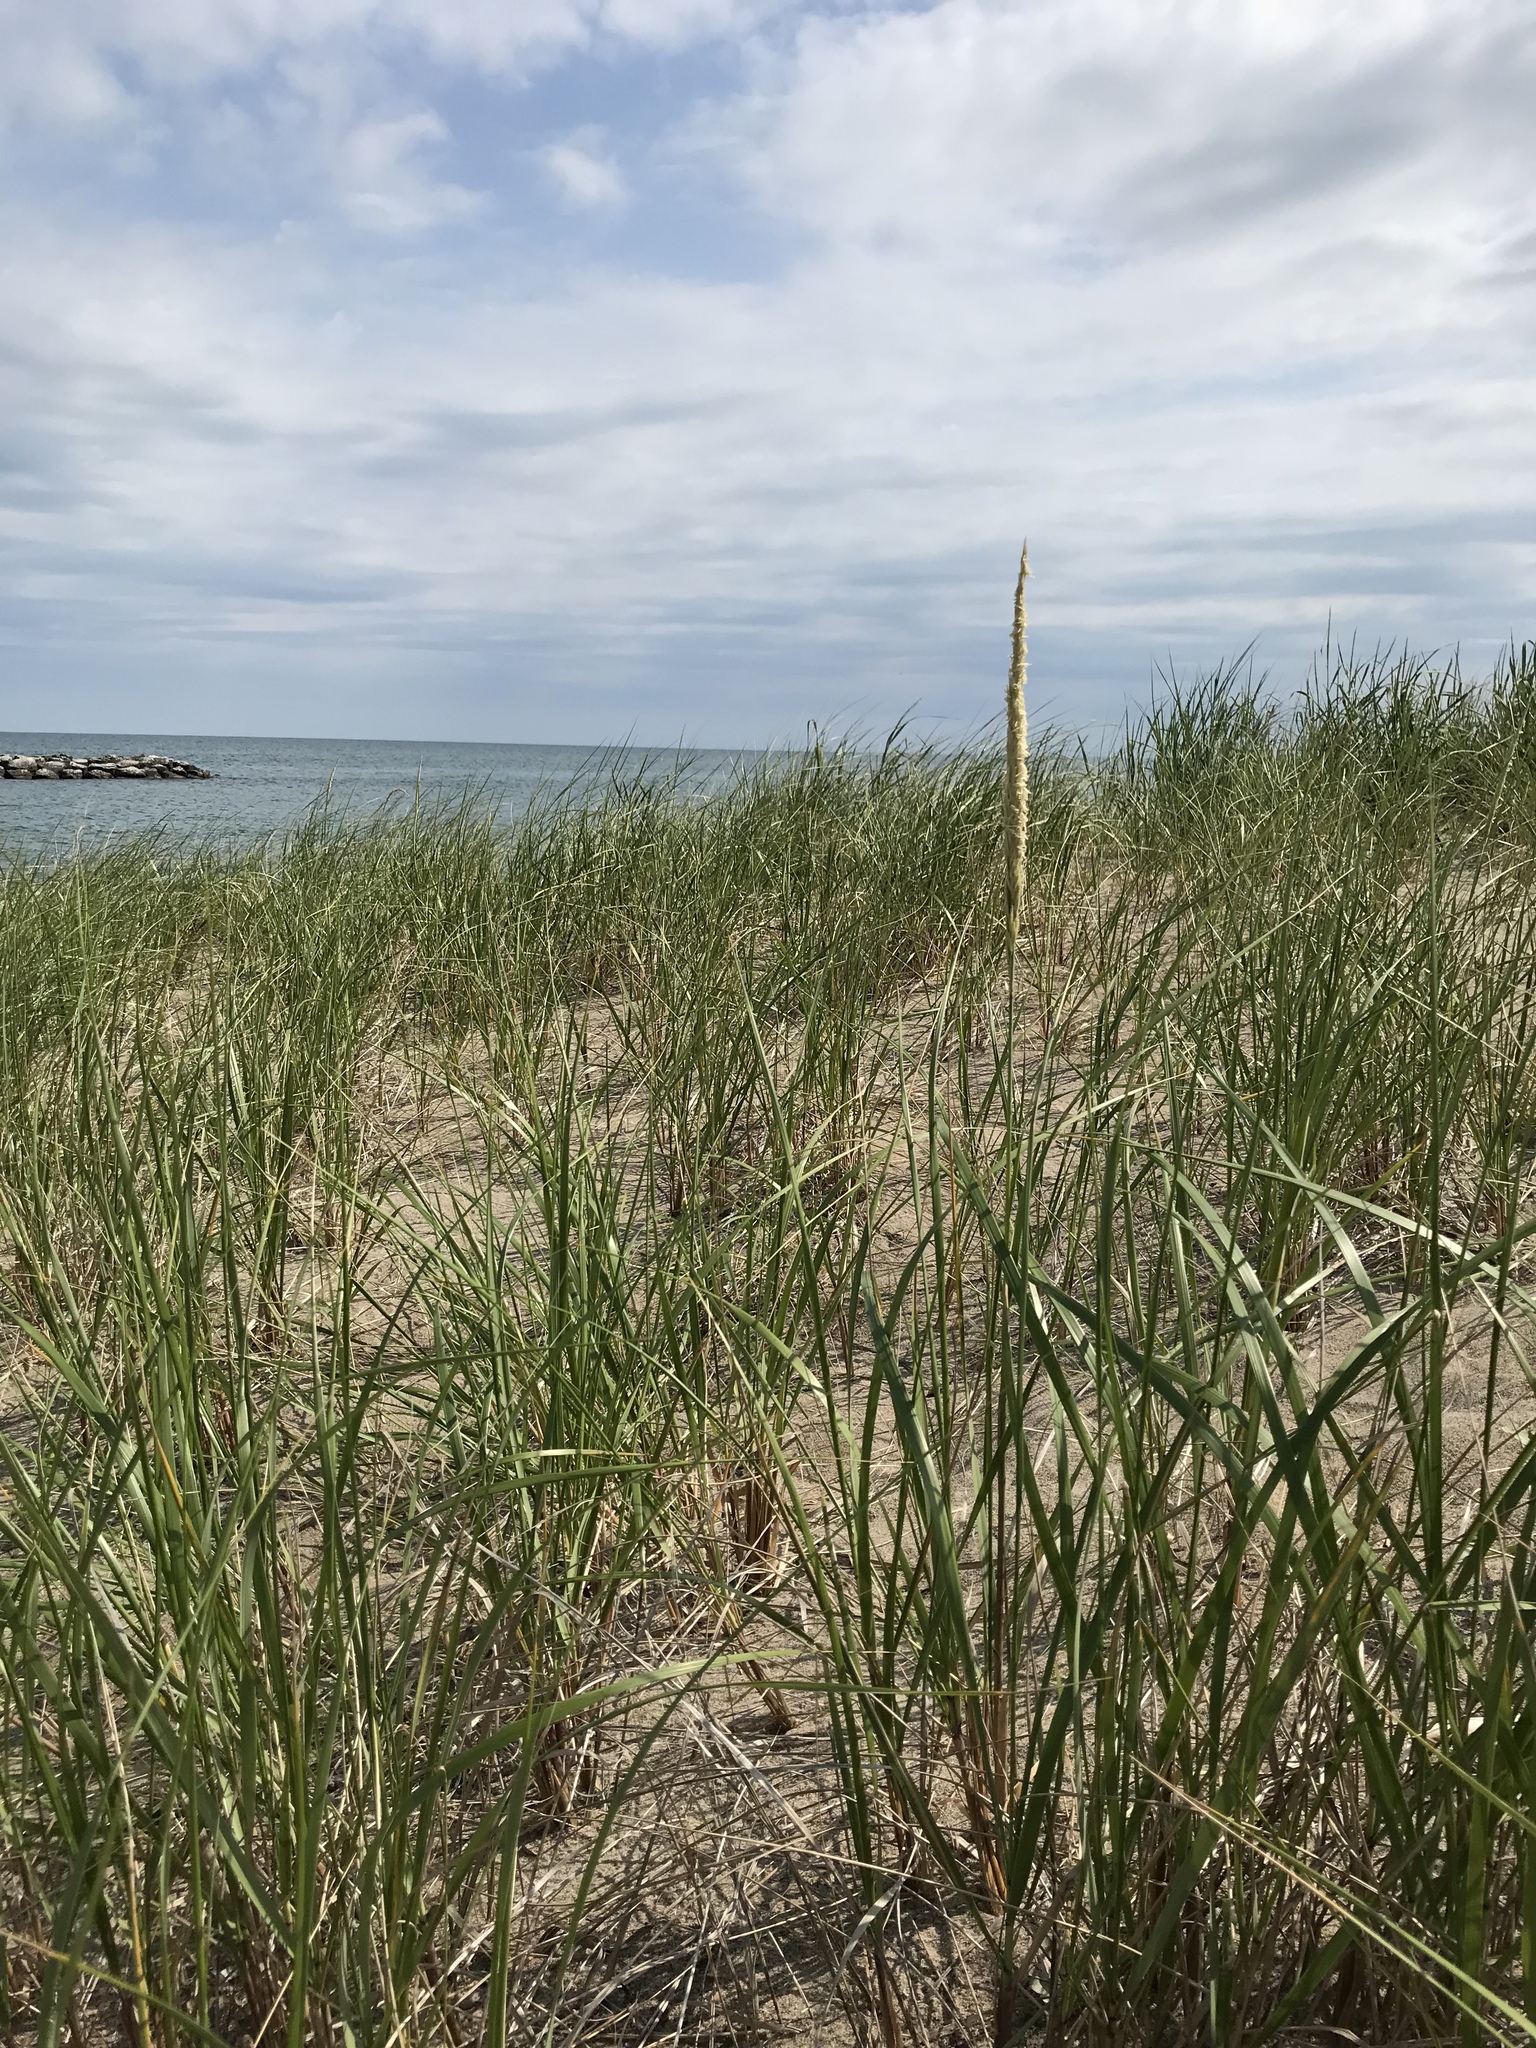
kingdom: Plantae
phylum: Tracheophyta
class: Liliopsida
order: Poales
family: Poaceae
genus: Calamagrostis
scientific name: Calamagrostis breviligulata
